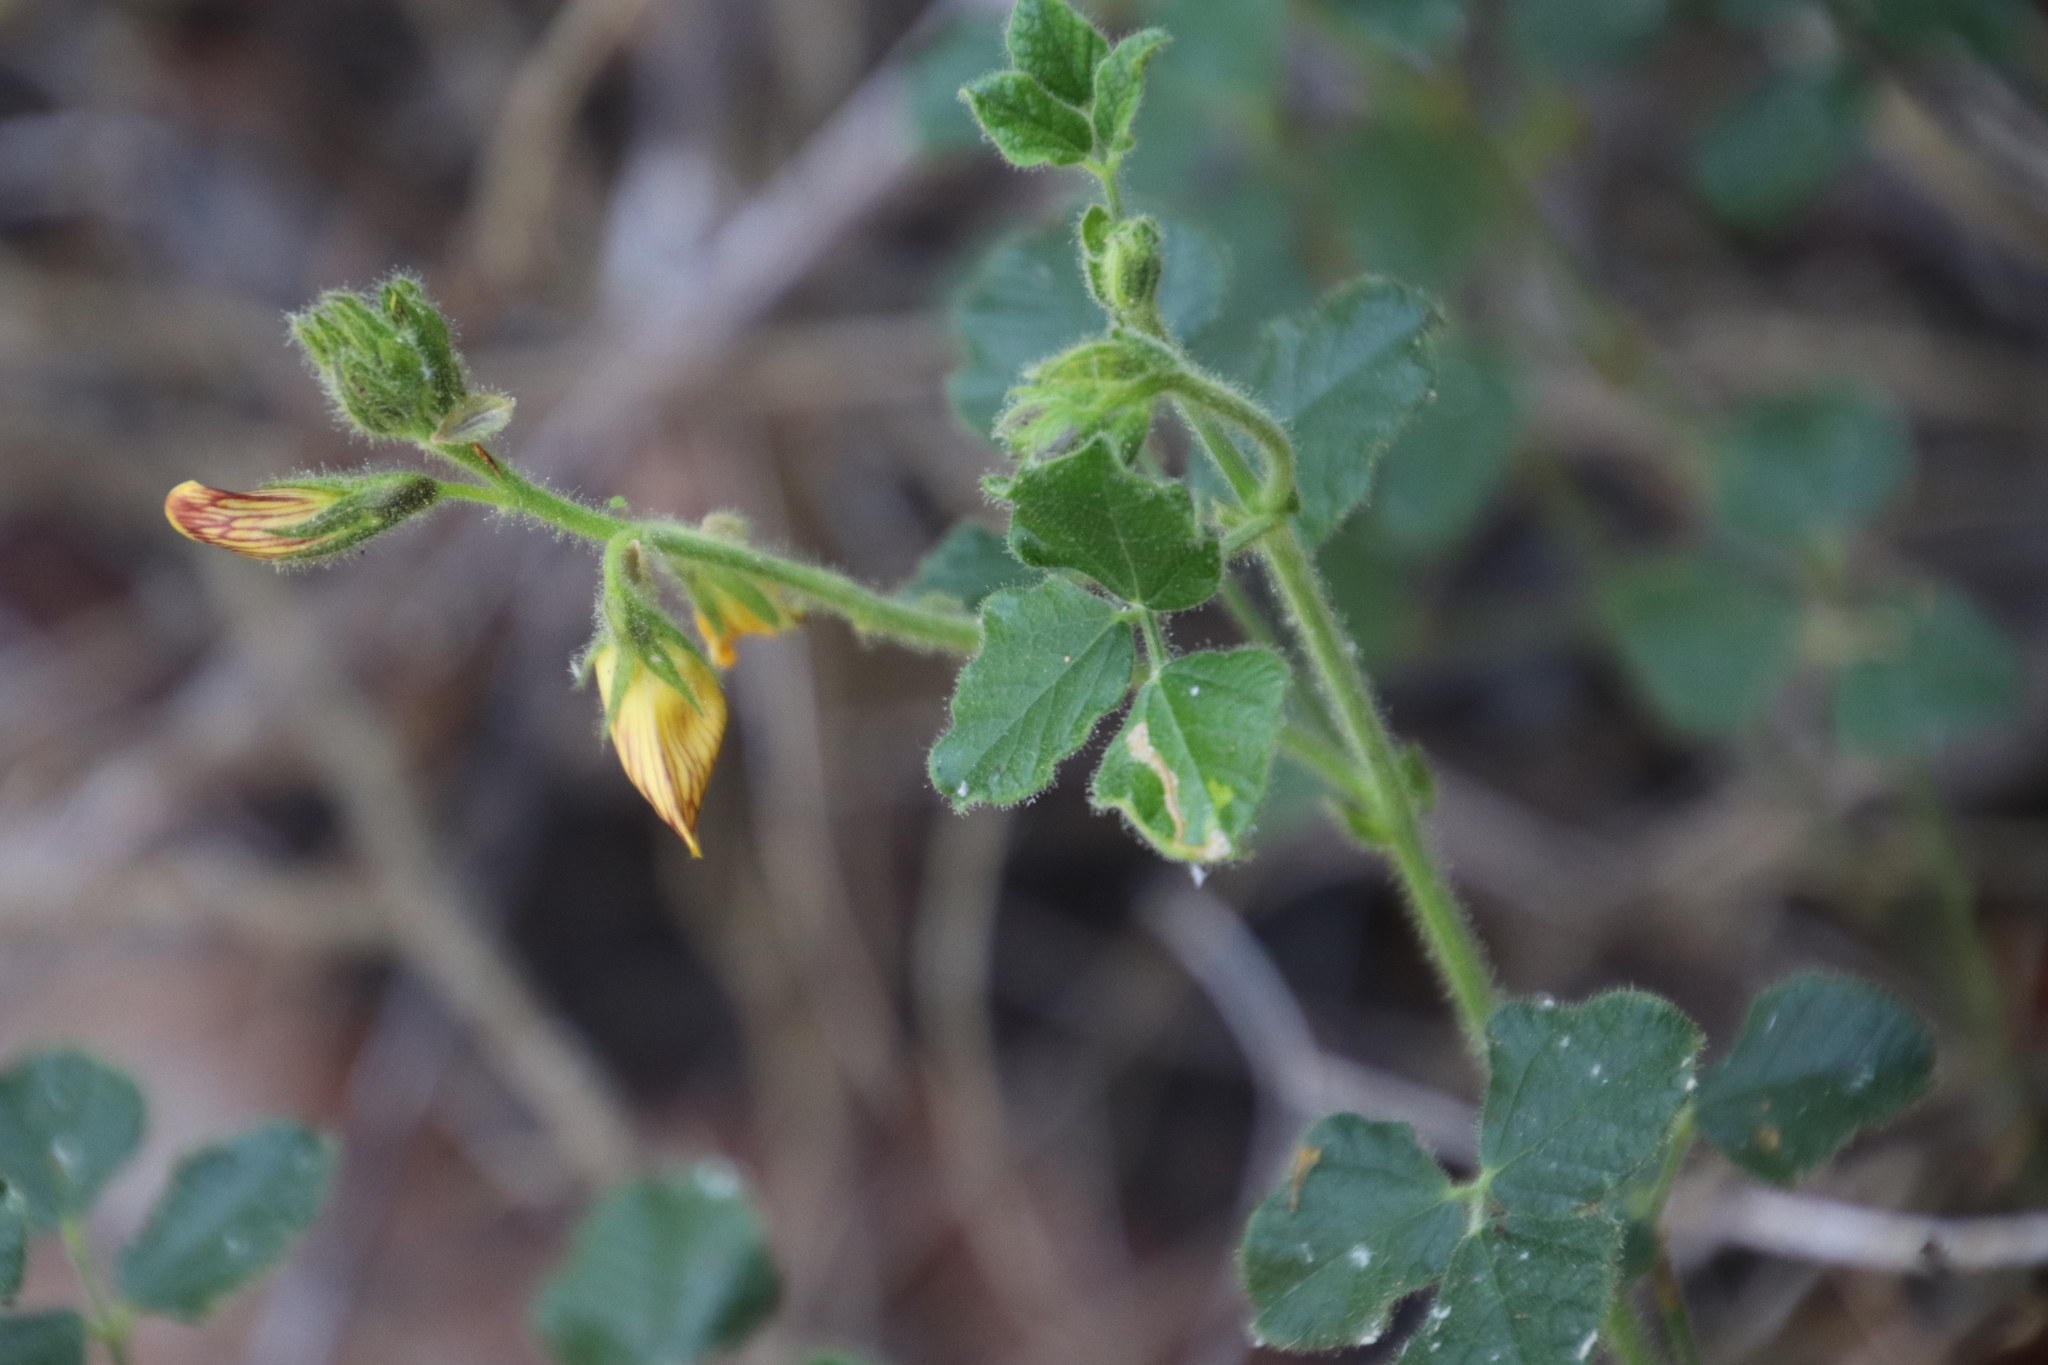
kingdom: Plantae
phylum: Tracheophyta
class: Magnoliopsida
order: Fabales
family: Fabaceae
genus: Bolusafra
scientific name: Bolusafra bituminosa
